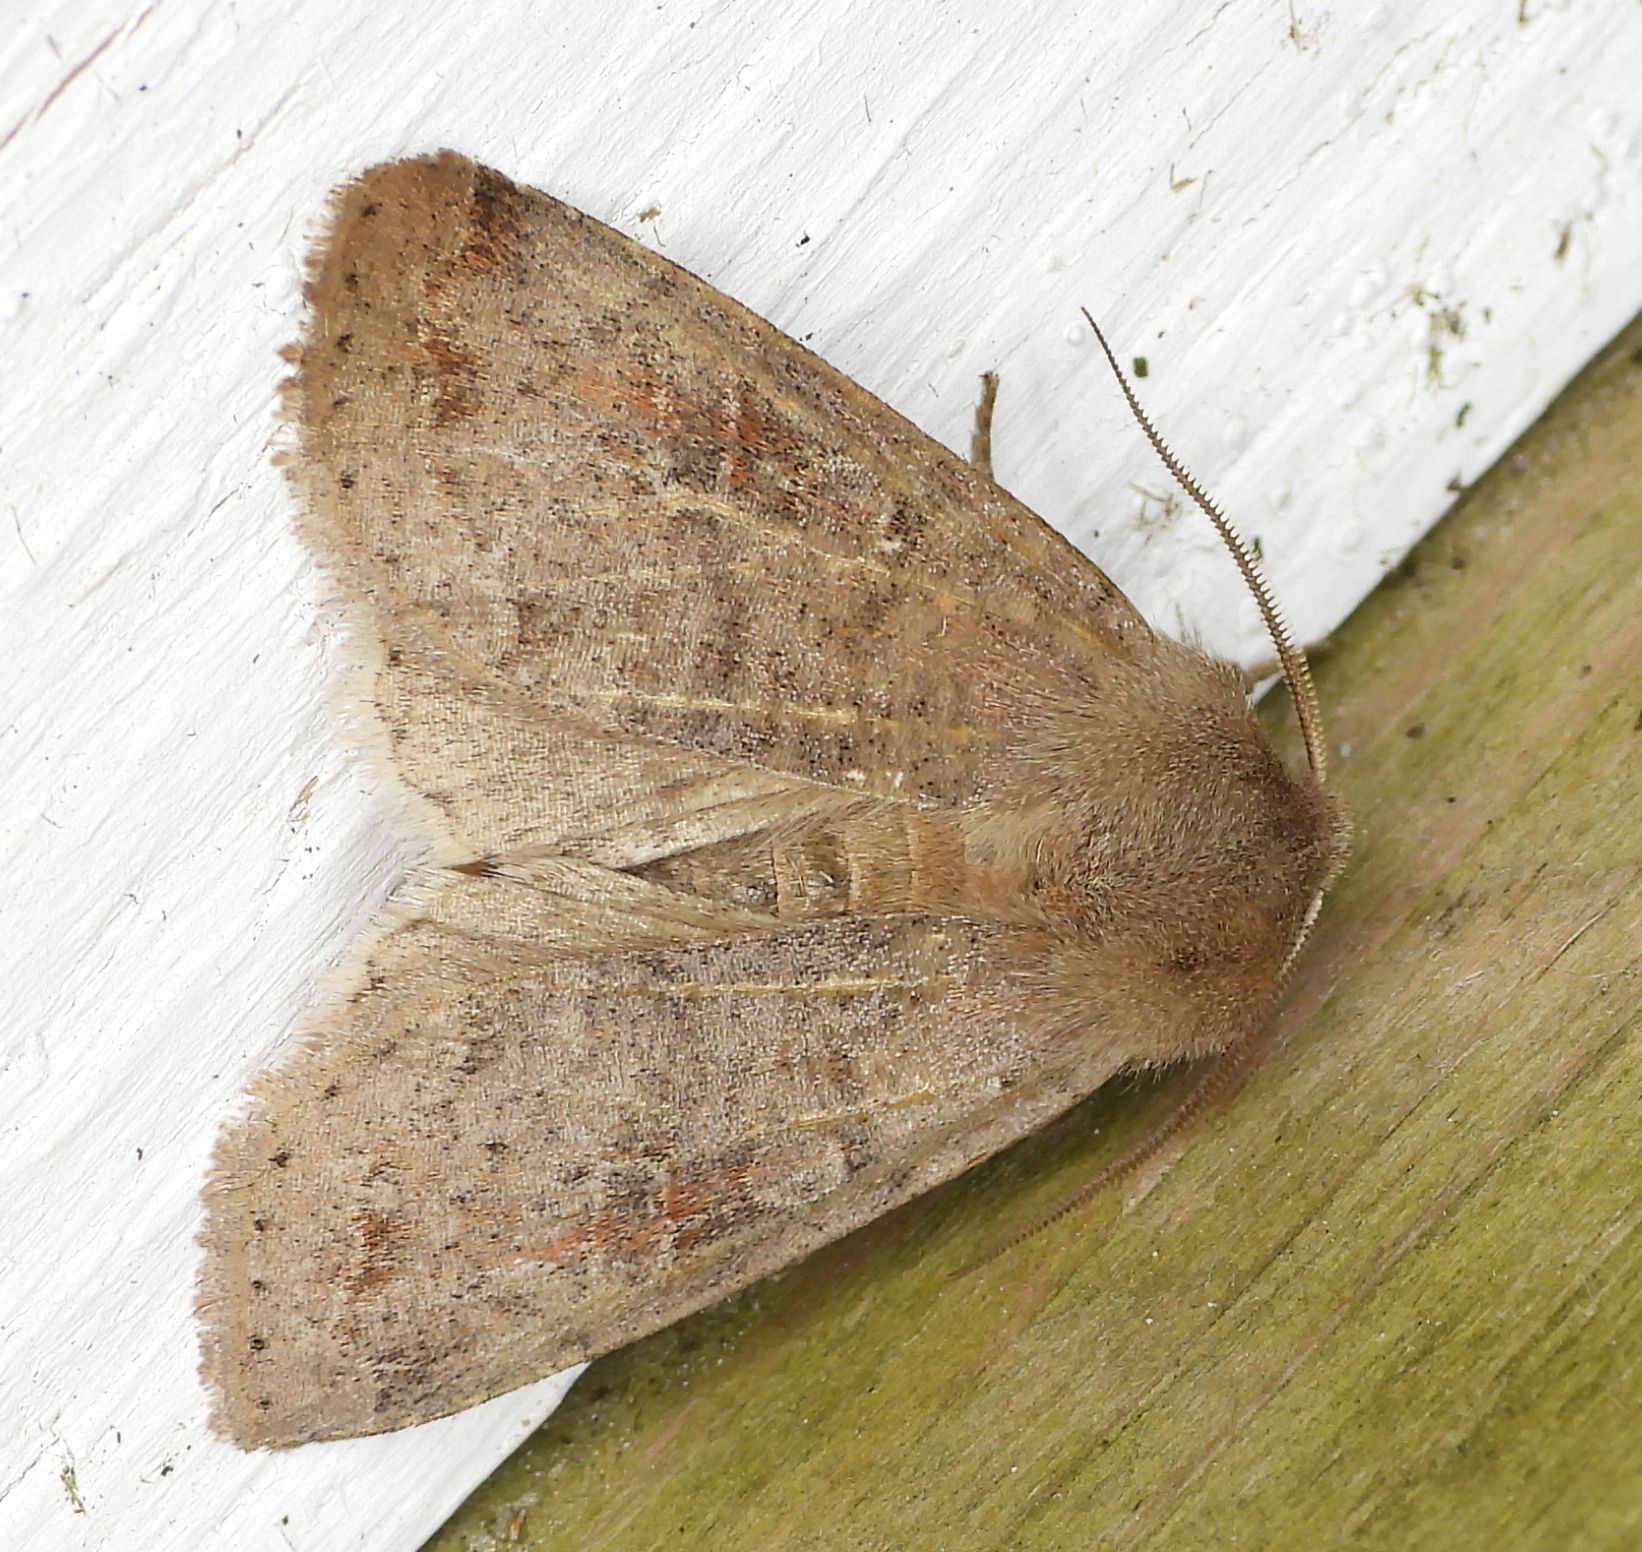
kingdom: Animalia
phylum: Arthropoda
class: Insecta
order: Lepidoptera
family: Noctuidae
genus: Orthosia
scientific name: Orthosia alurina
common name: Gray quaker
